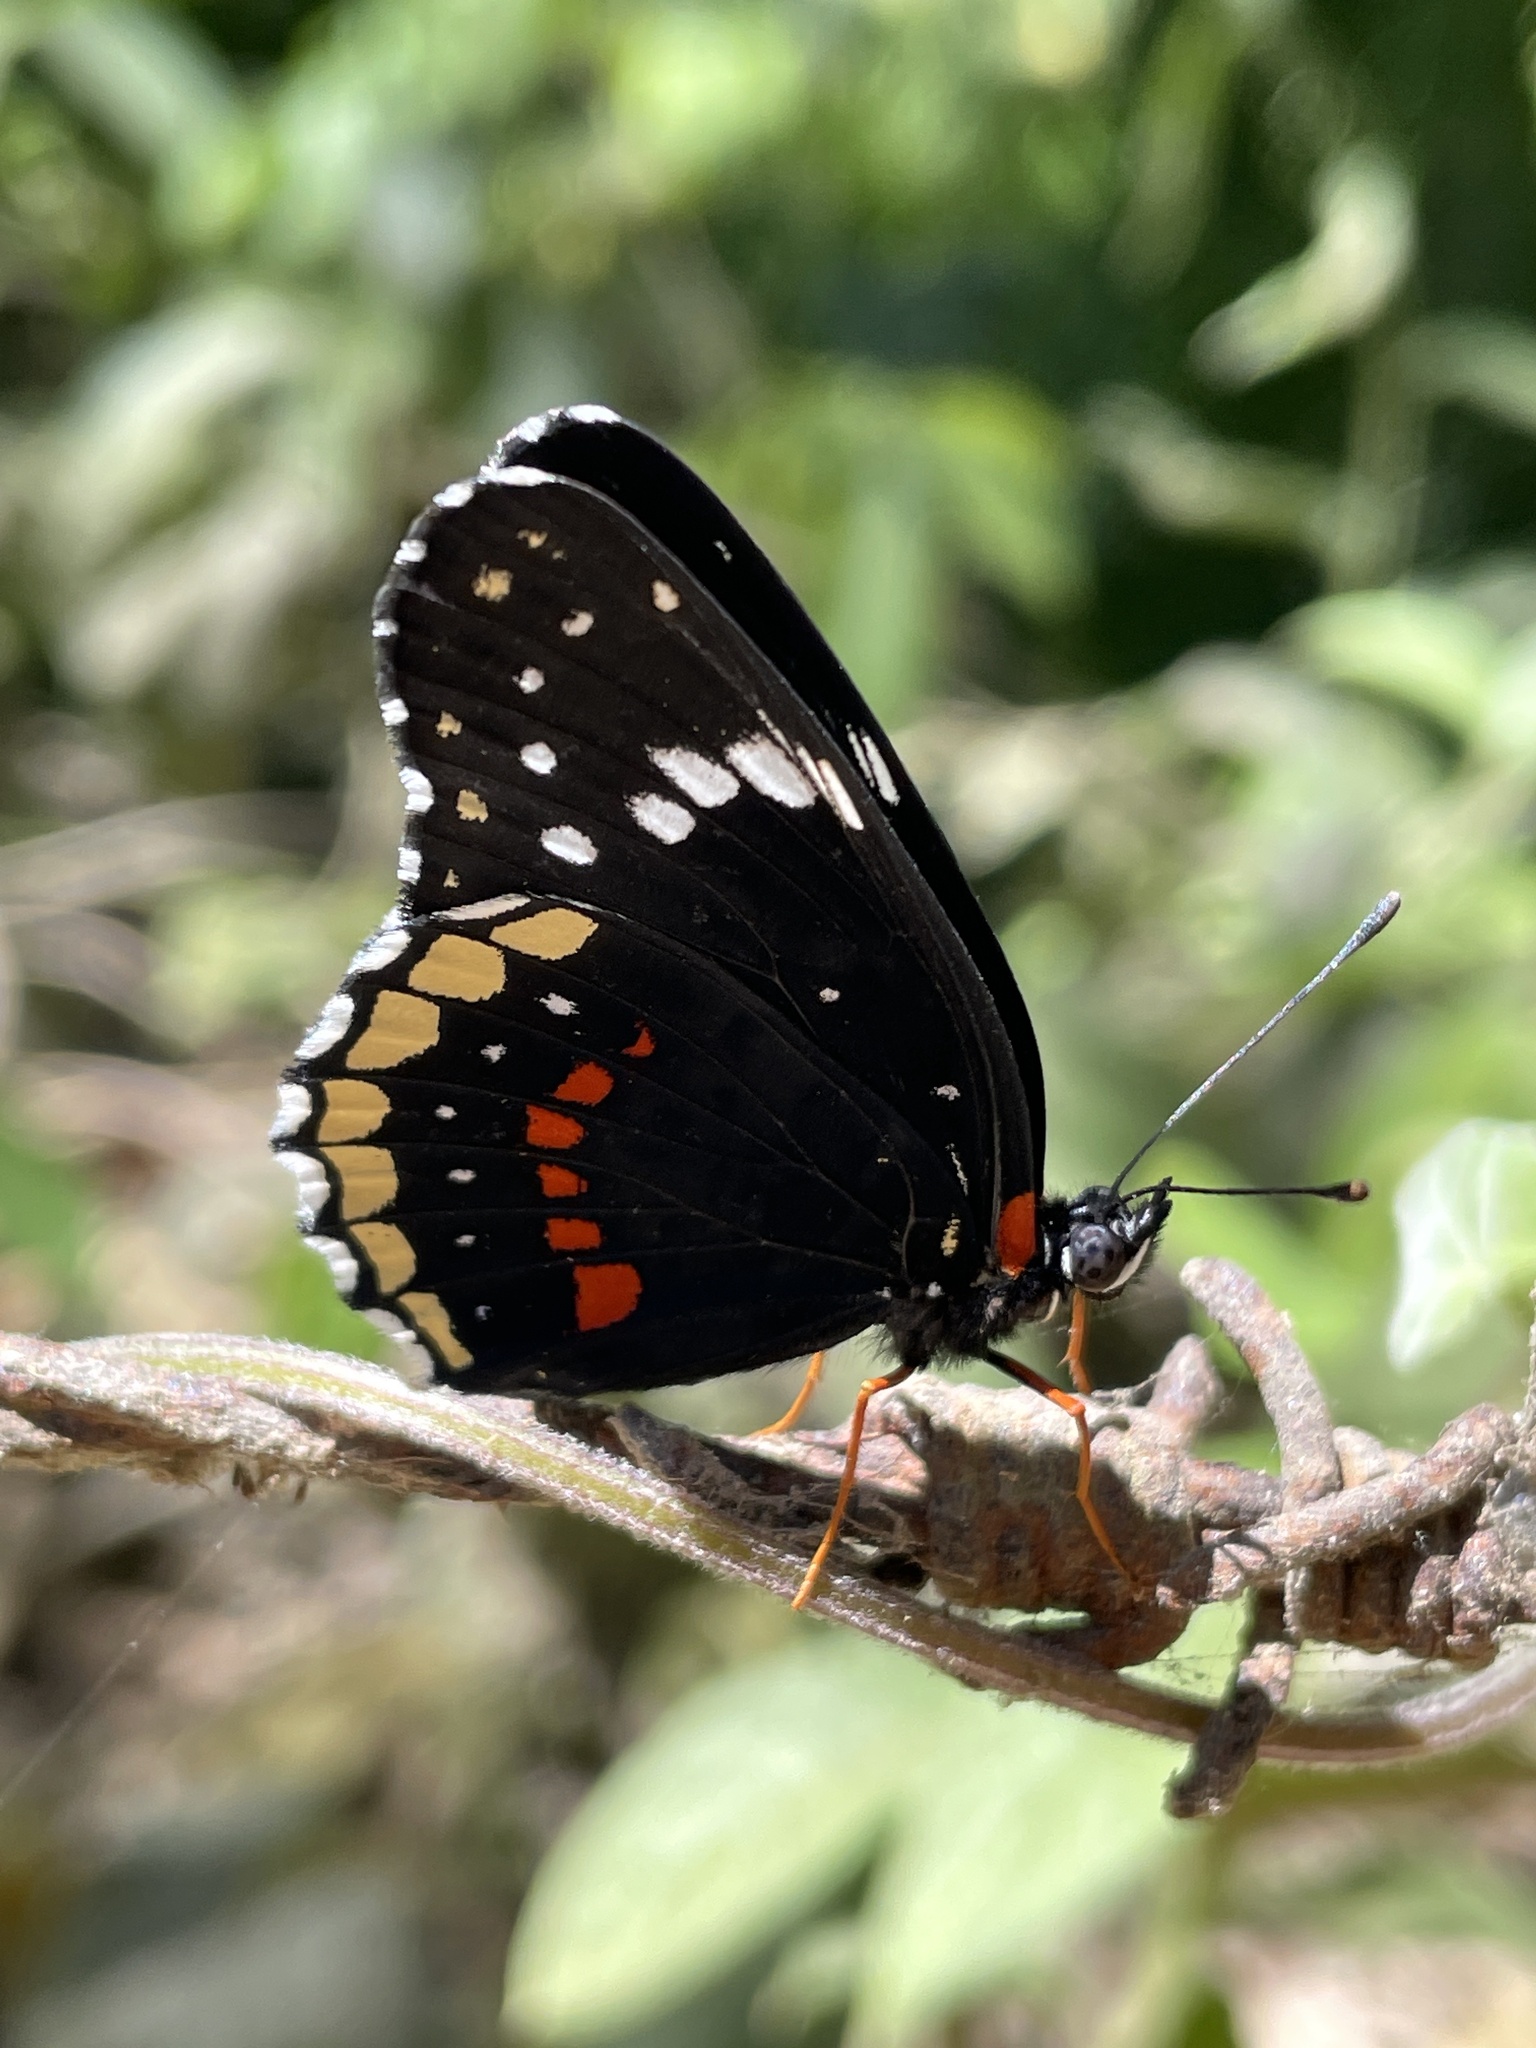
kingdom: Animalia
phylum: Arthropoda
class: Insecta
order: Lepidoptera
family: Nymphalidae
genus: Chlosyne
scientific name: Chlosyne hippodrome
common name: Simple patch
